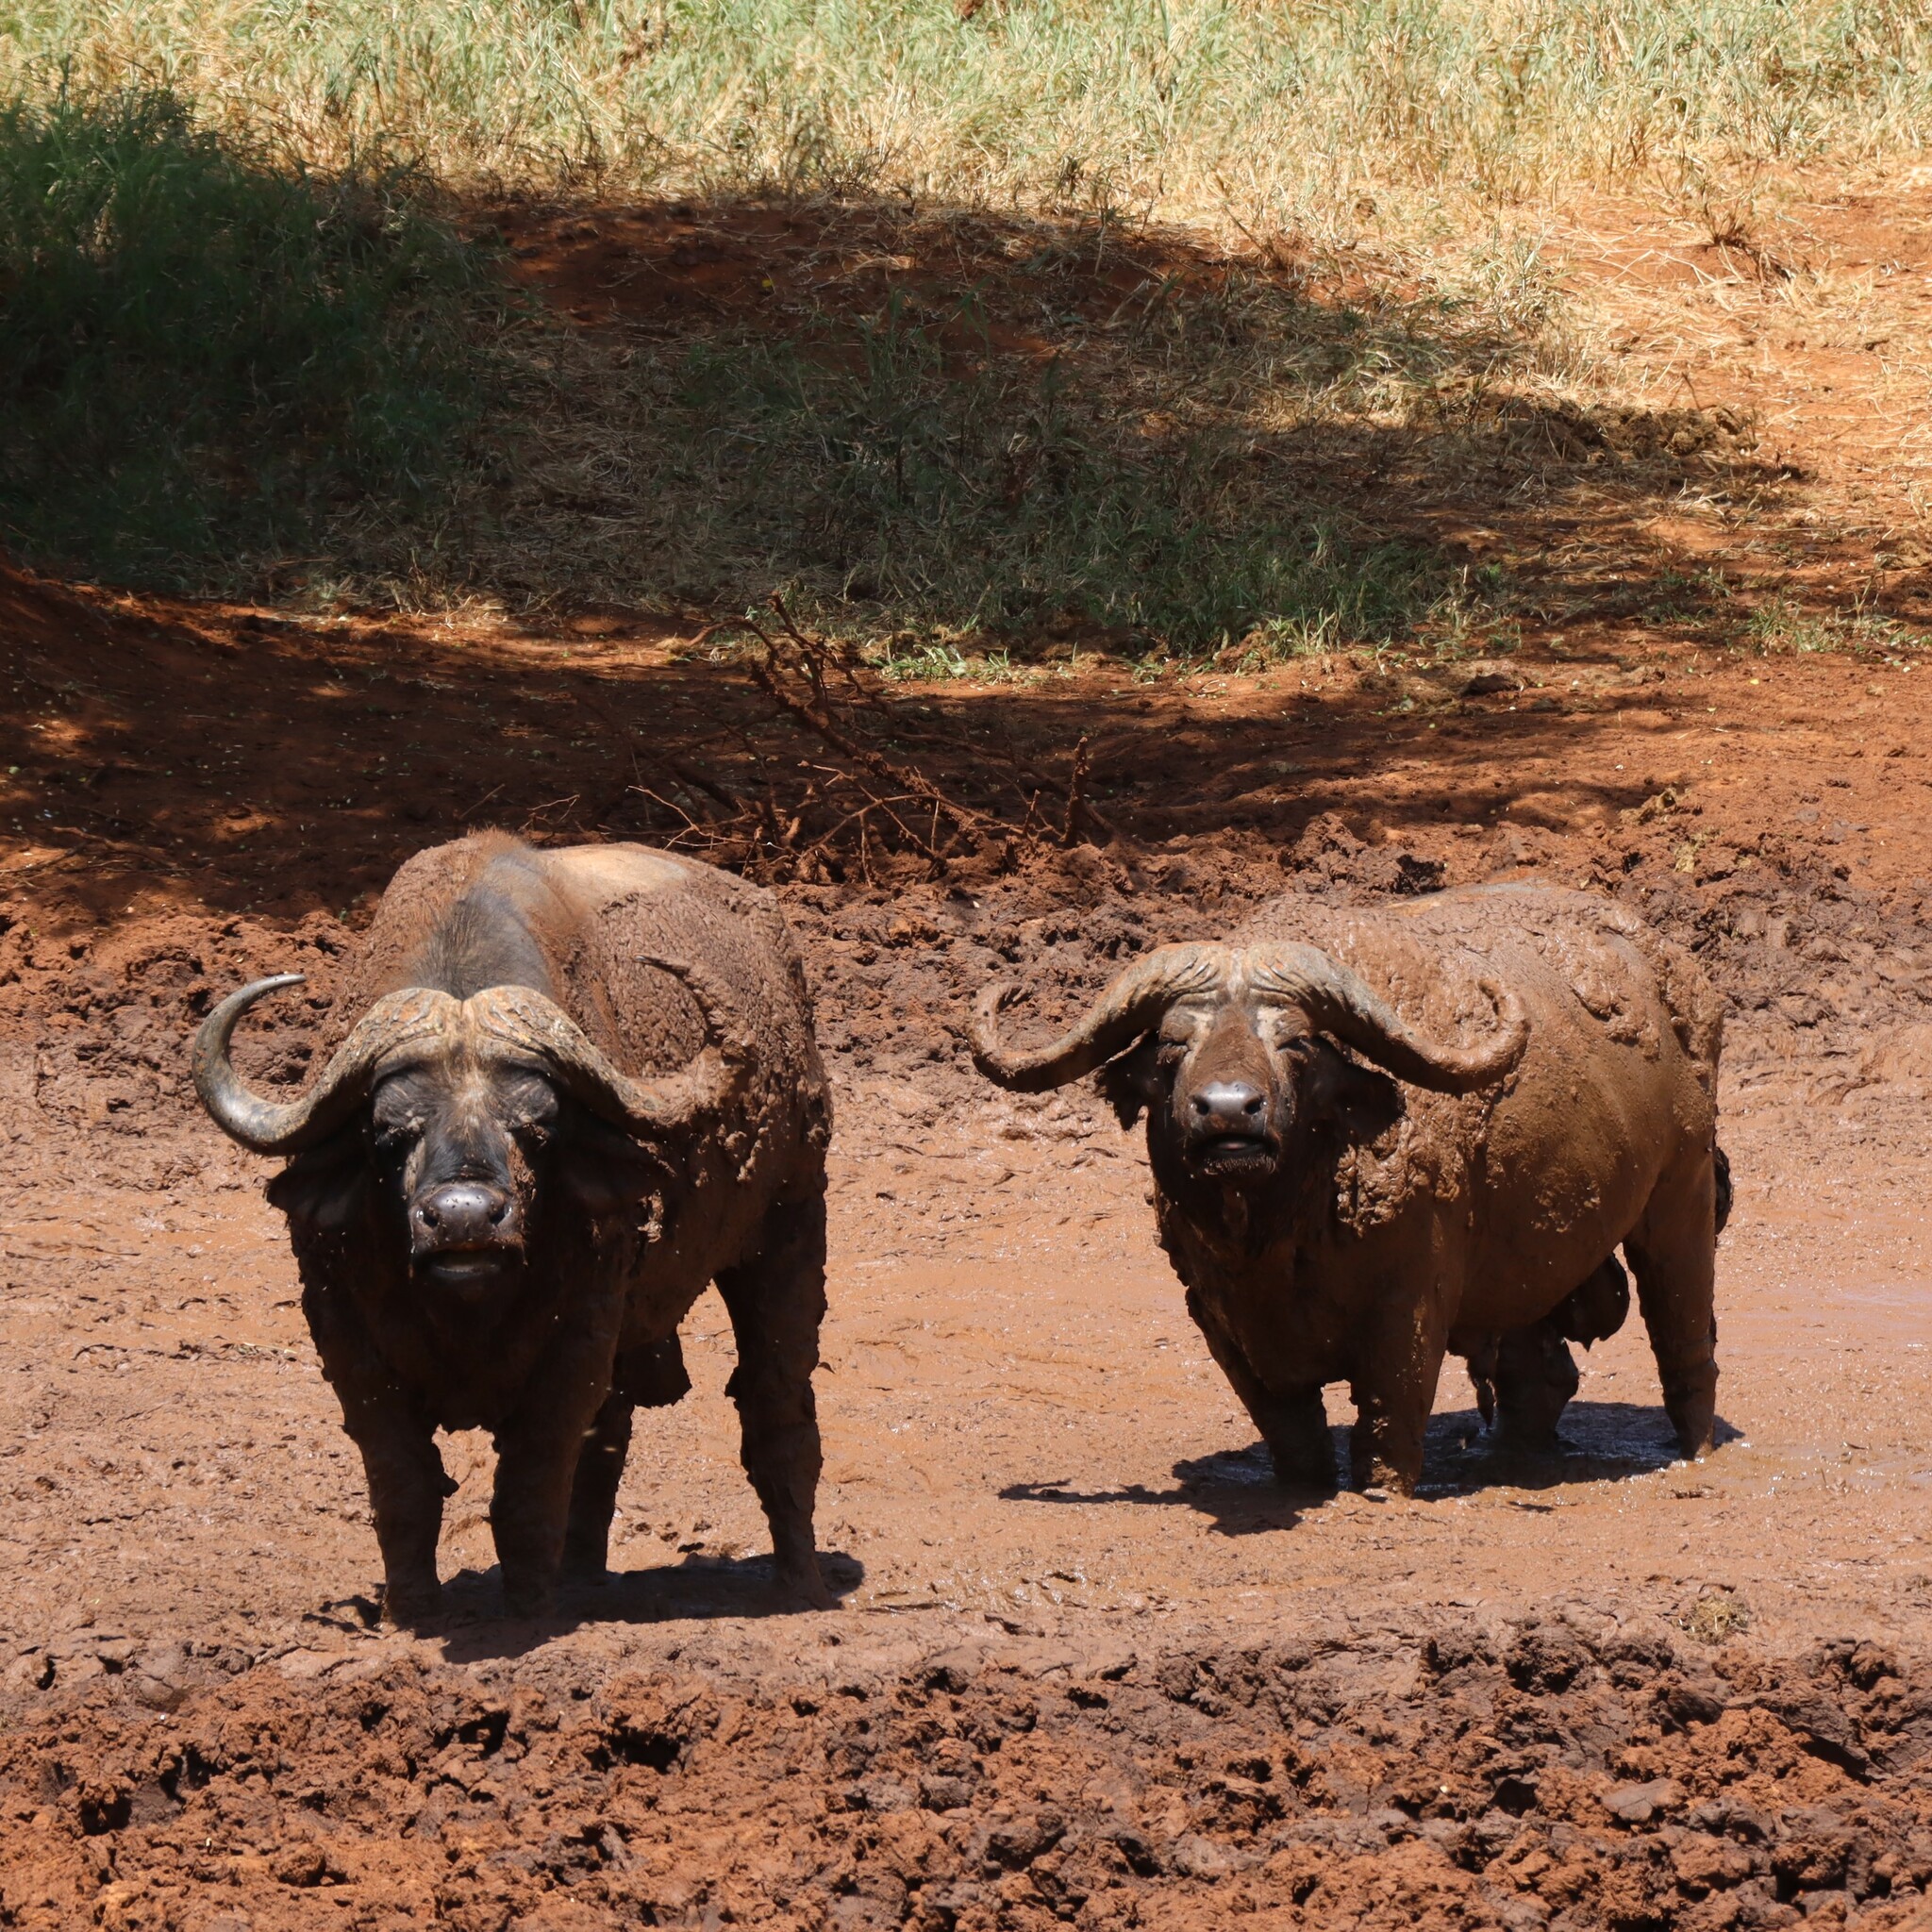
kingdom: Animalia
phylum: Chordata
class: Mammalia
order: Artiodactyla
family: Bovidae
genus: Syncerus
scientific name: Syncerus caffer
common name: African buffalo
